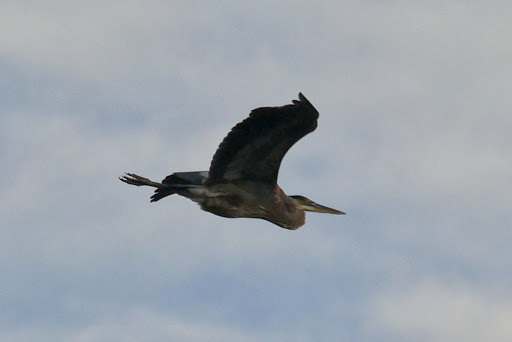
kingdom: Animalia
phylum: Chordata
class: Aves
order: Pelecaniformes
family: Ardeidae
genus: Ardea
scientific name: Ardea herodias
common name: Great blue heron
